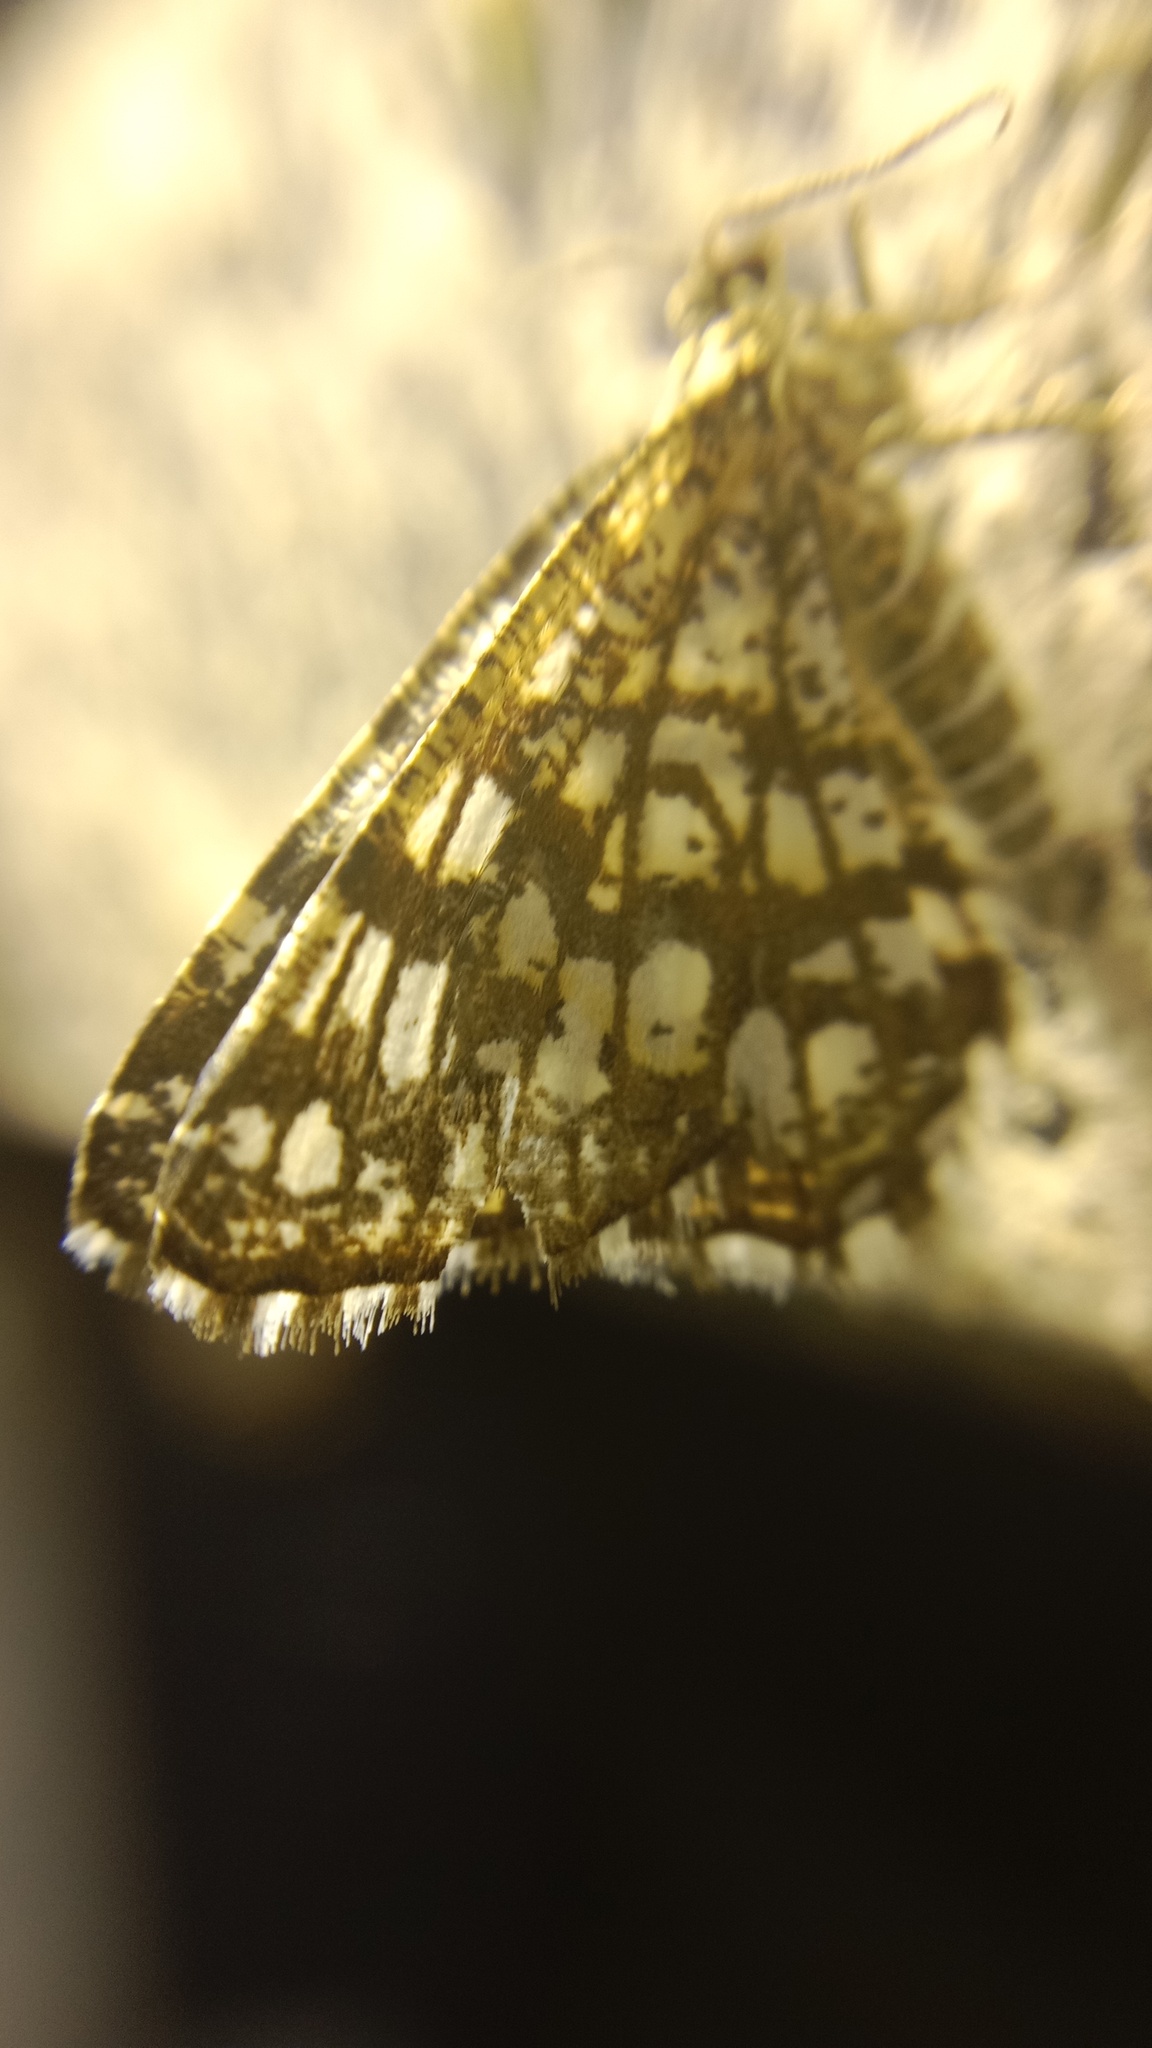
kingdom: Animalia
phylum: Arthropoda
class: Insecta
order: Lepidoptera
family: Geometridae
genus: Chiasmia
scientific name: Chiasmia clathrata
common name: Latticed heath
